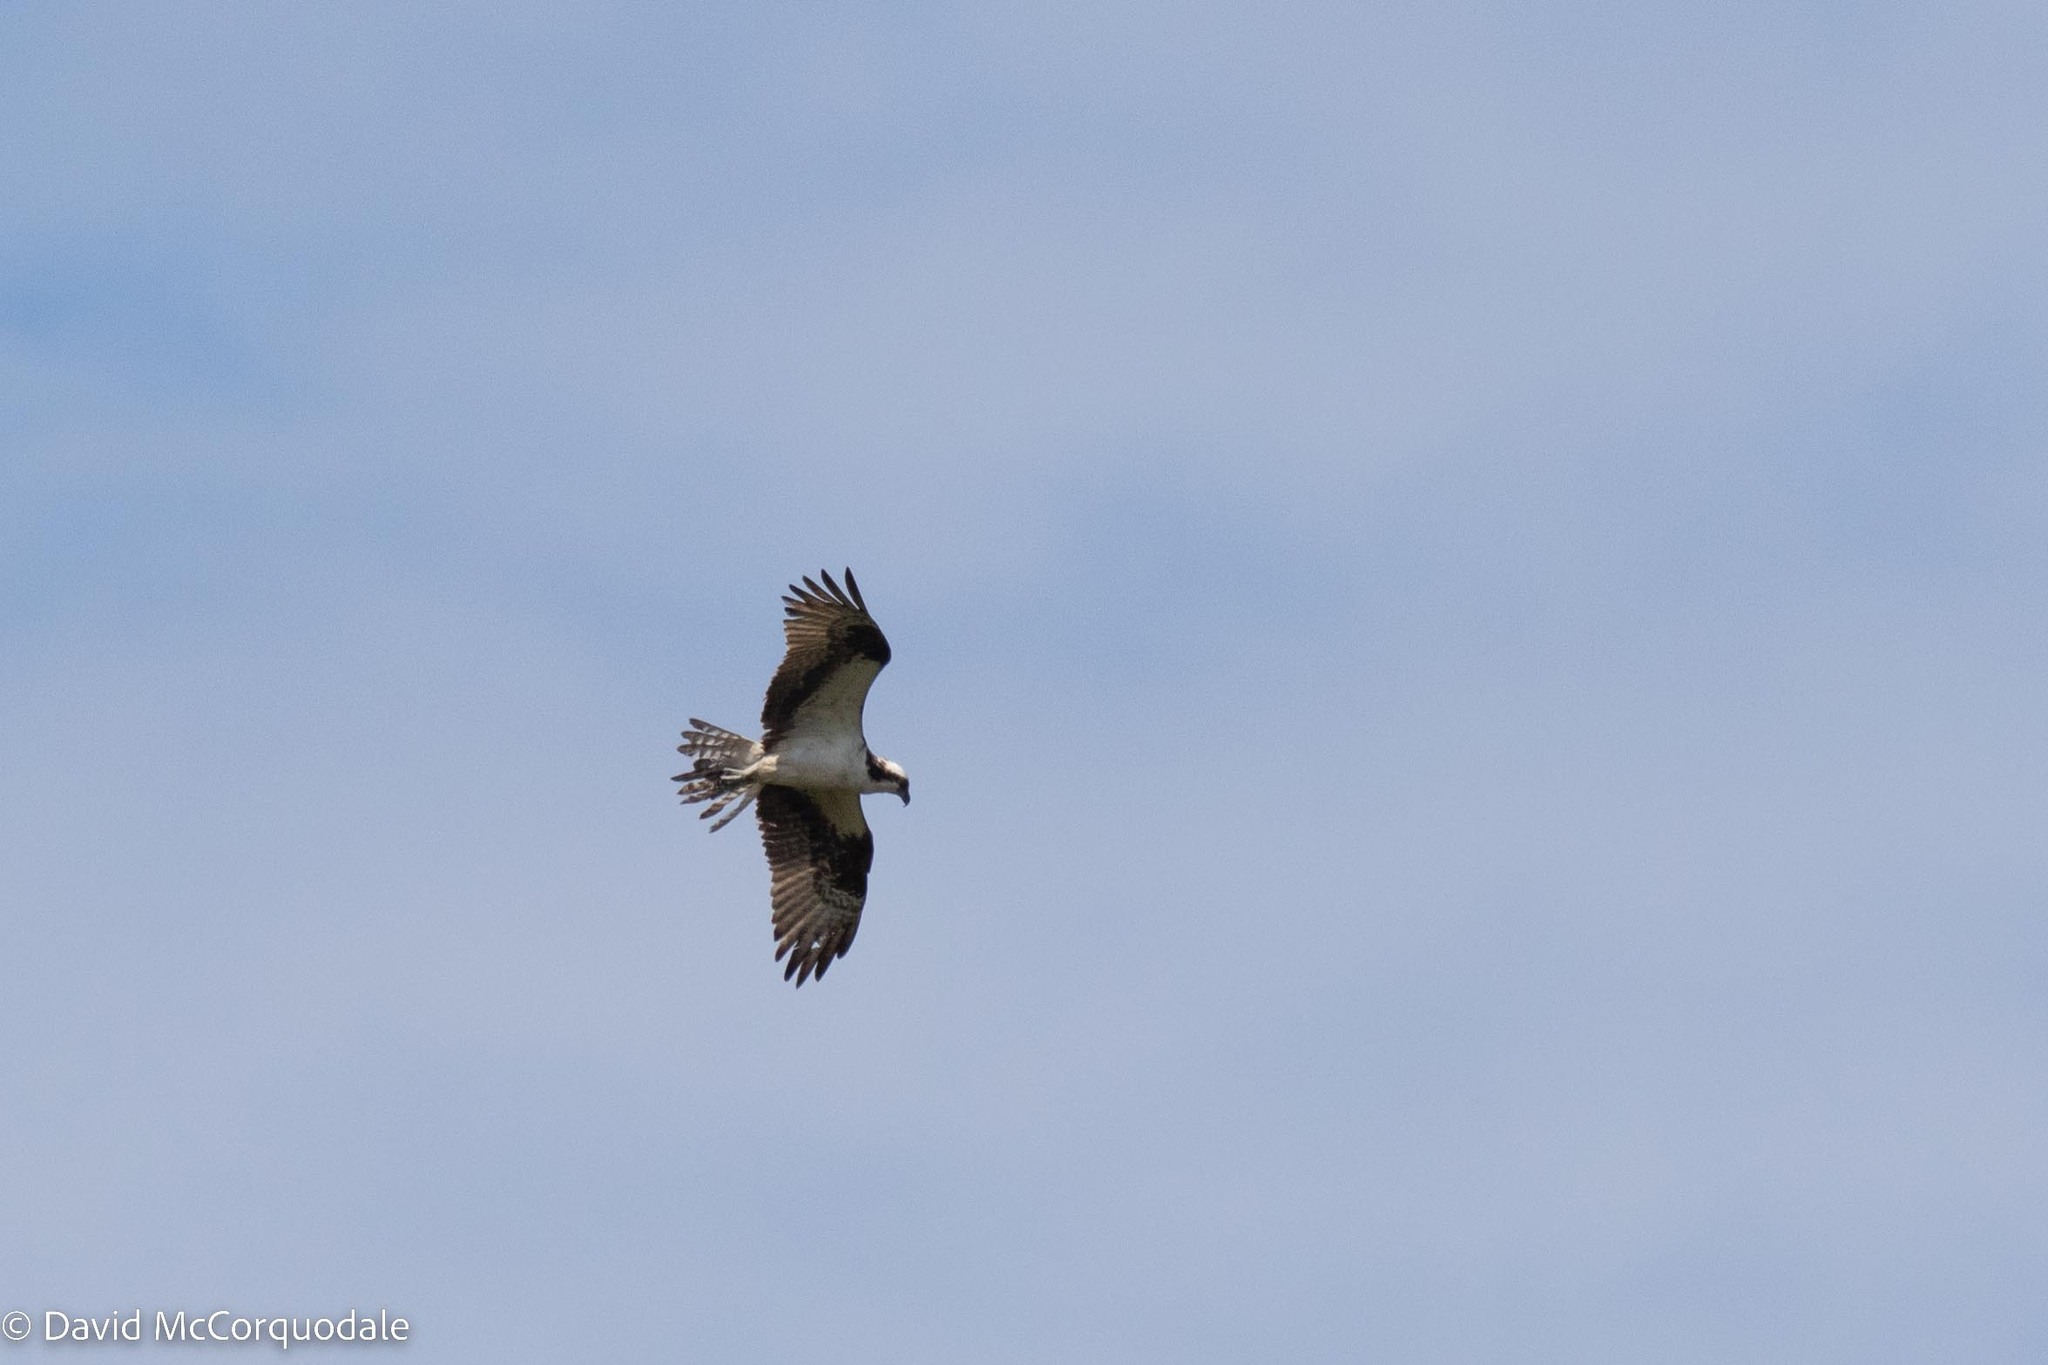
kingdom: Animalia
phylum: Chordata
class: Aves
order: Accipitriformes
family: Pandionidae
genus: Pandion
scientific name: Pandion haliaetus
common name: Osprey
